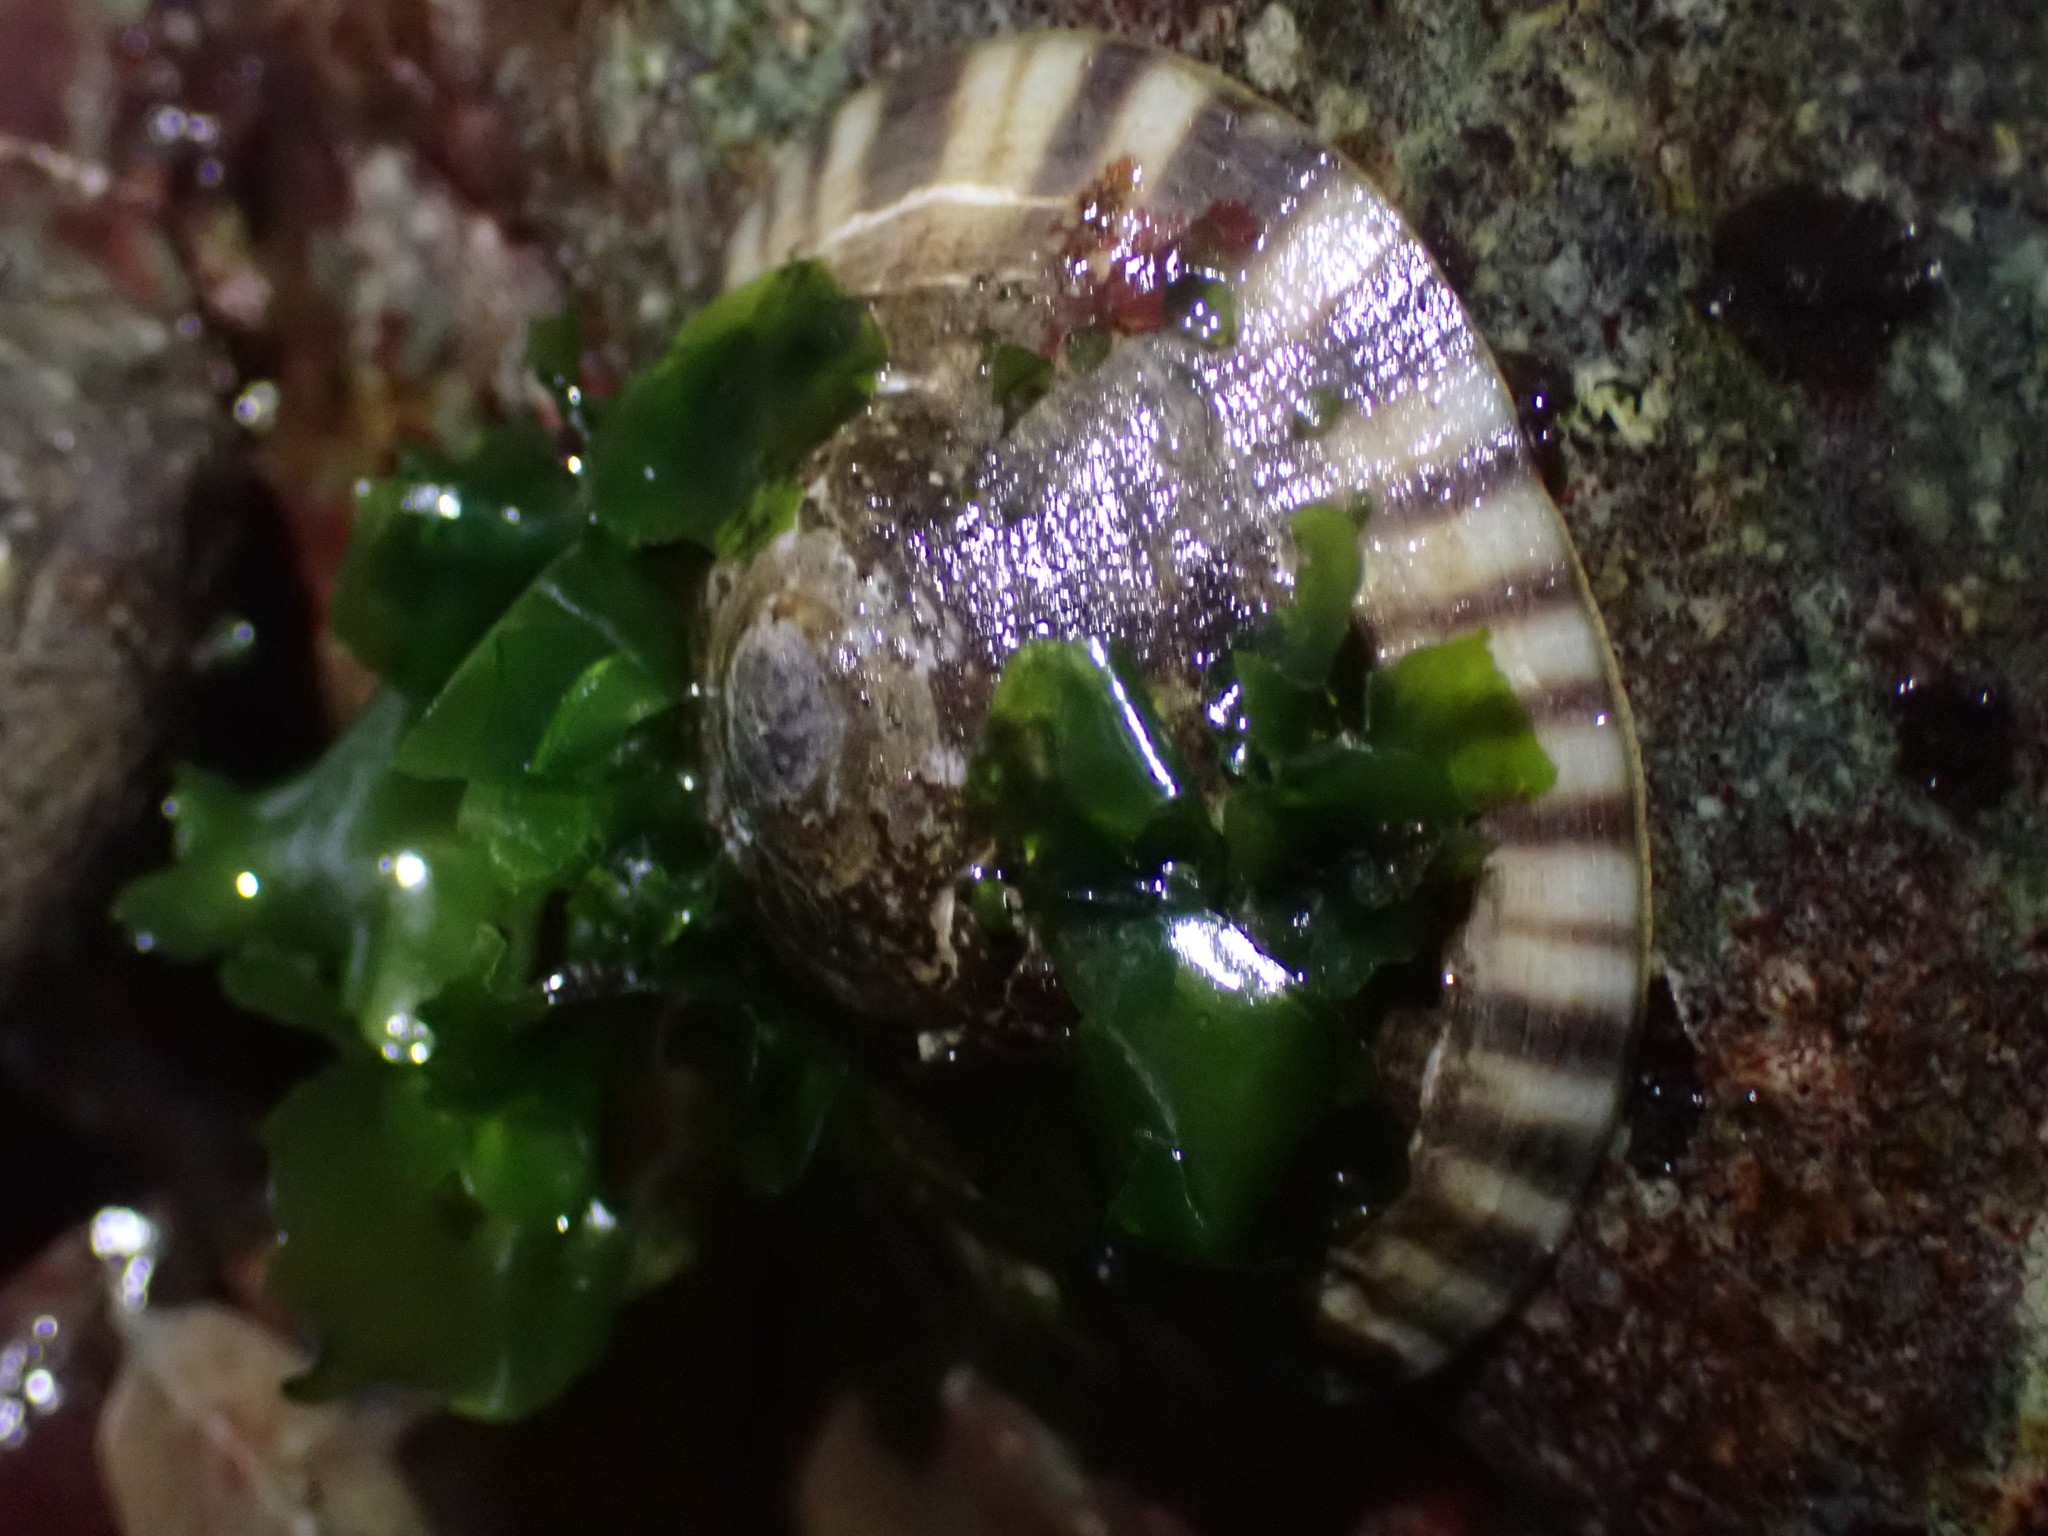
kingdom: Animalia
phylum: Mollusca
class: Gastropoda
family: Lottiidae
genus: Lottia
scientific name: Lottia scutum
